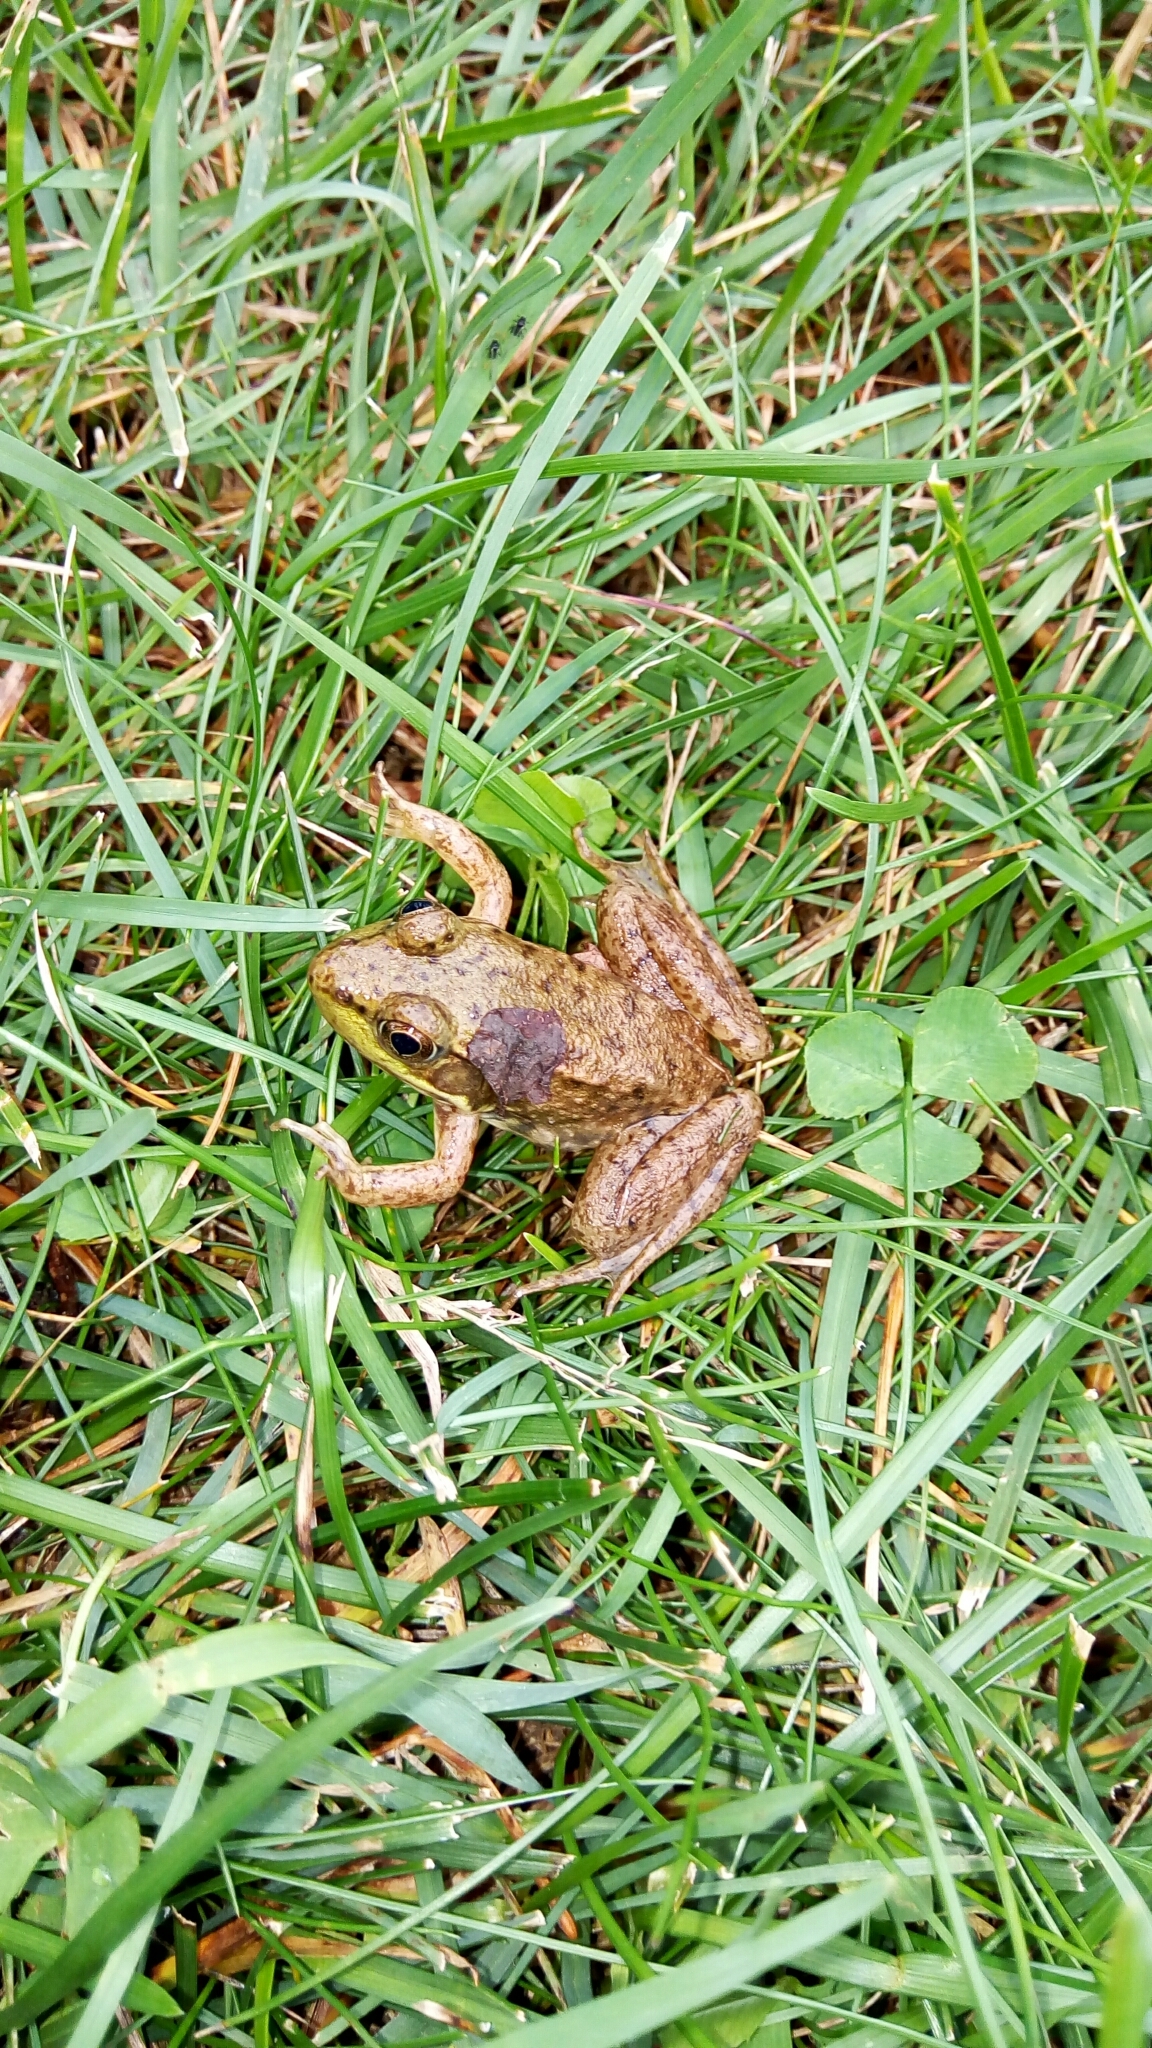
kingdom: Animalia
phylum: Chordata
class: Amphibia
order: Anura
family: Ranidae
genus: Lithobates
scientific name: Lithobates clamitans
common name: Green frog
